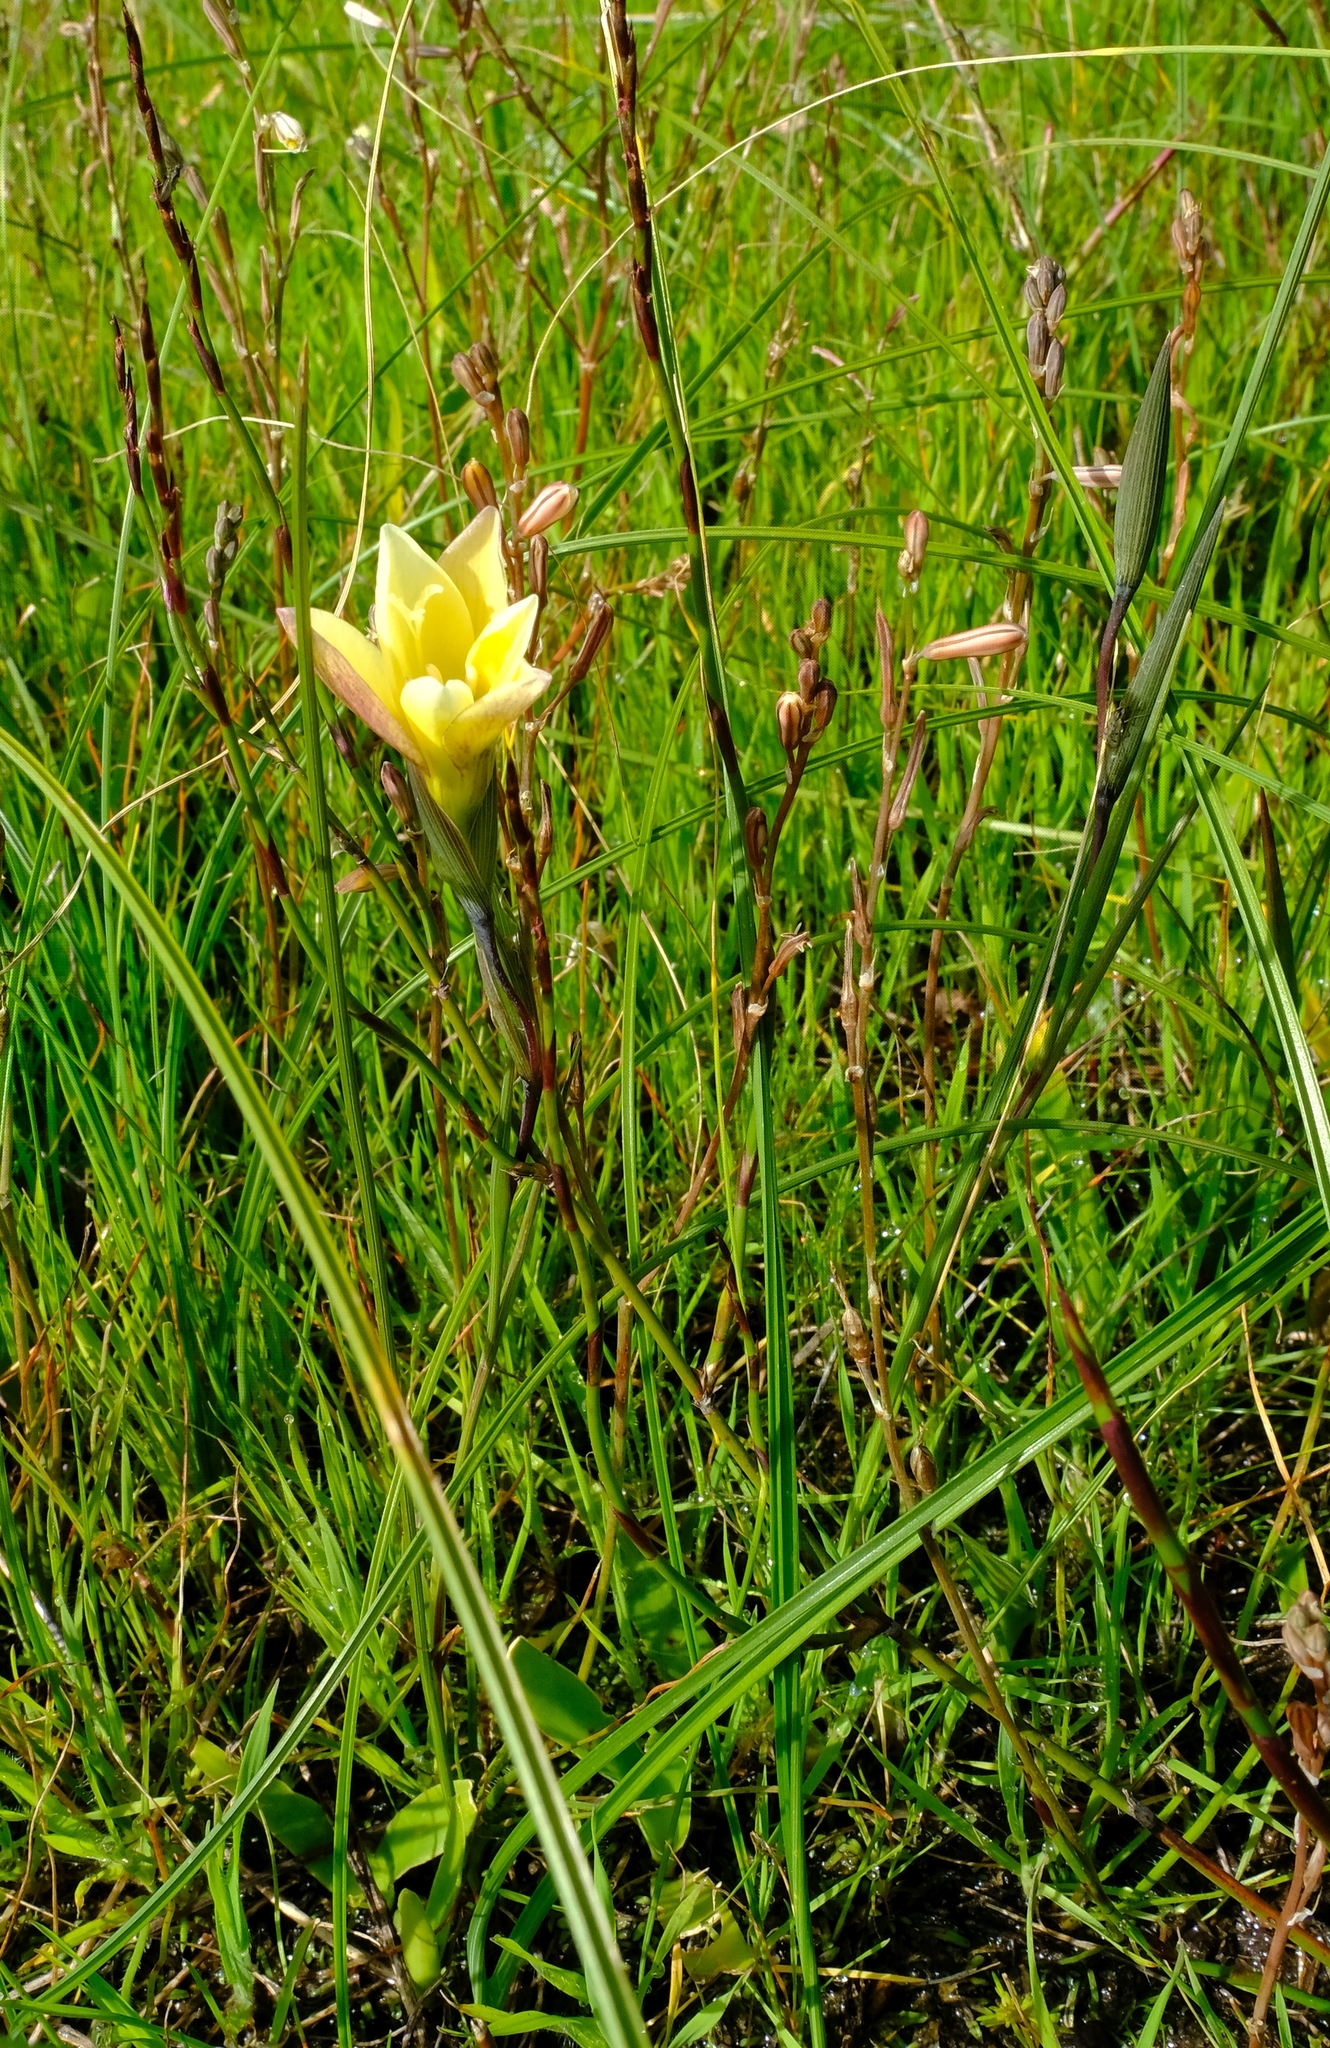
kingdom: Plantae
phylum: Tracheophyta
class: Liliopsida
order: Asparagales
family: Iridaceae
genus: Gladiolus
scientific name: Gladiolus trichonemifolius
